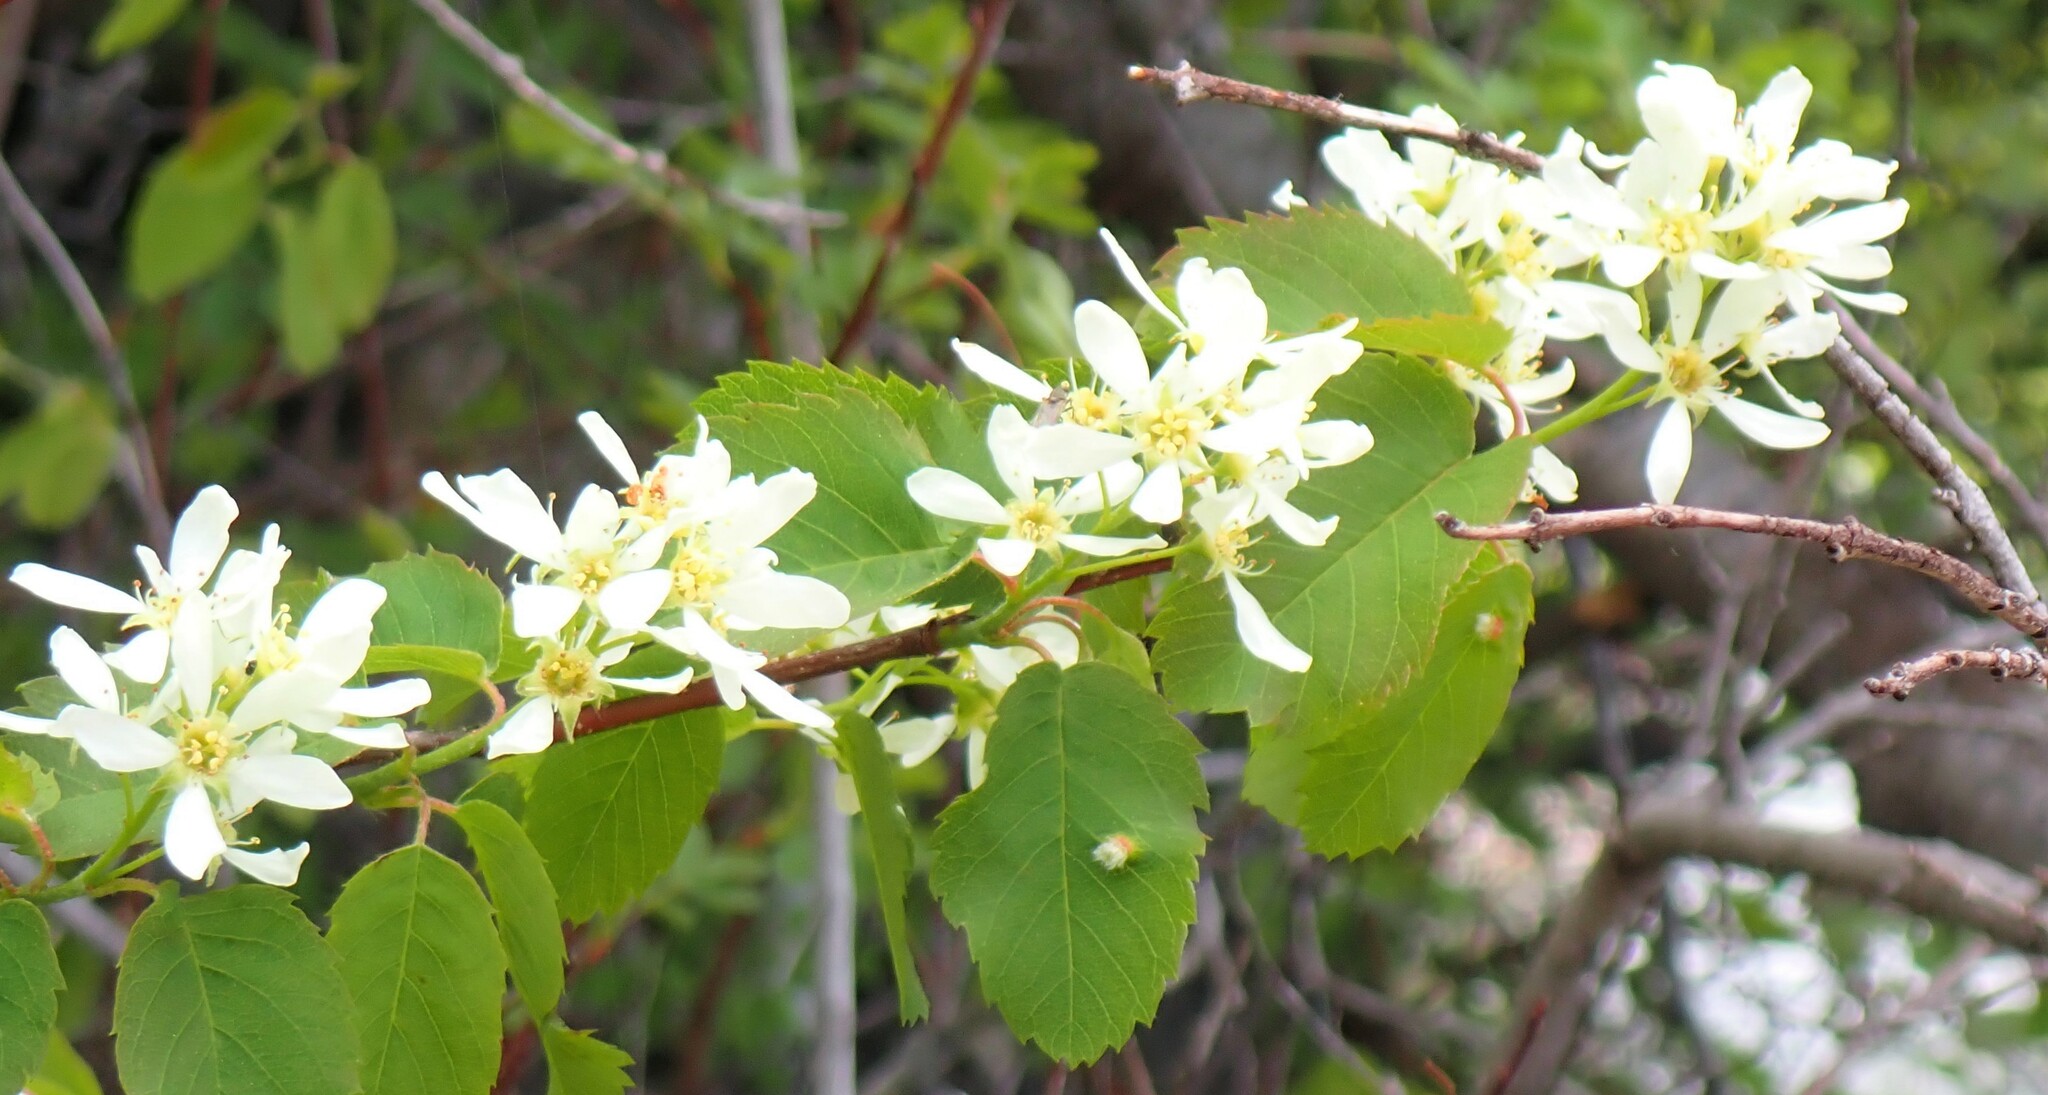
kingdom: Plantae
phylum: Tracheophyta
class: Magnoliopsida
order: Rosales
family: Rosaceae
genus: Amelanchier
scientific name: Amelanchier alnifolia
